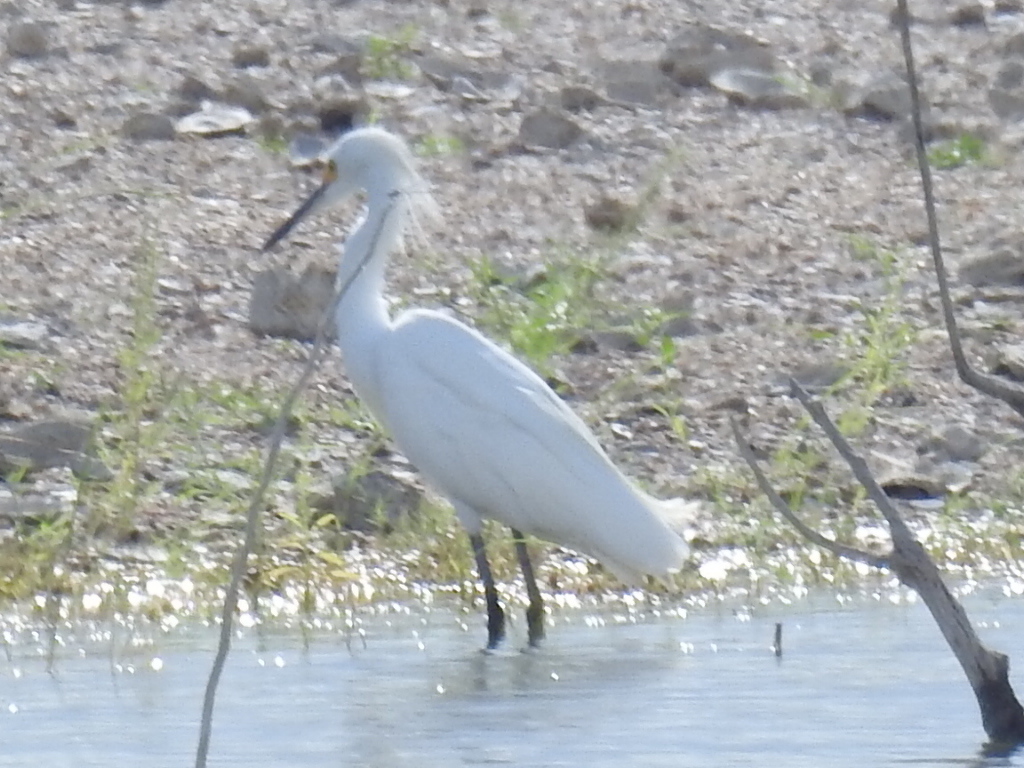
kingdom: Animalia
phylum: Chordata
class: Aves
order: Pelecaniformes
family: Ardeidae
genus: Egretta
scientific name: Egretta thula
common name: Snowy egret
